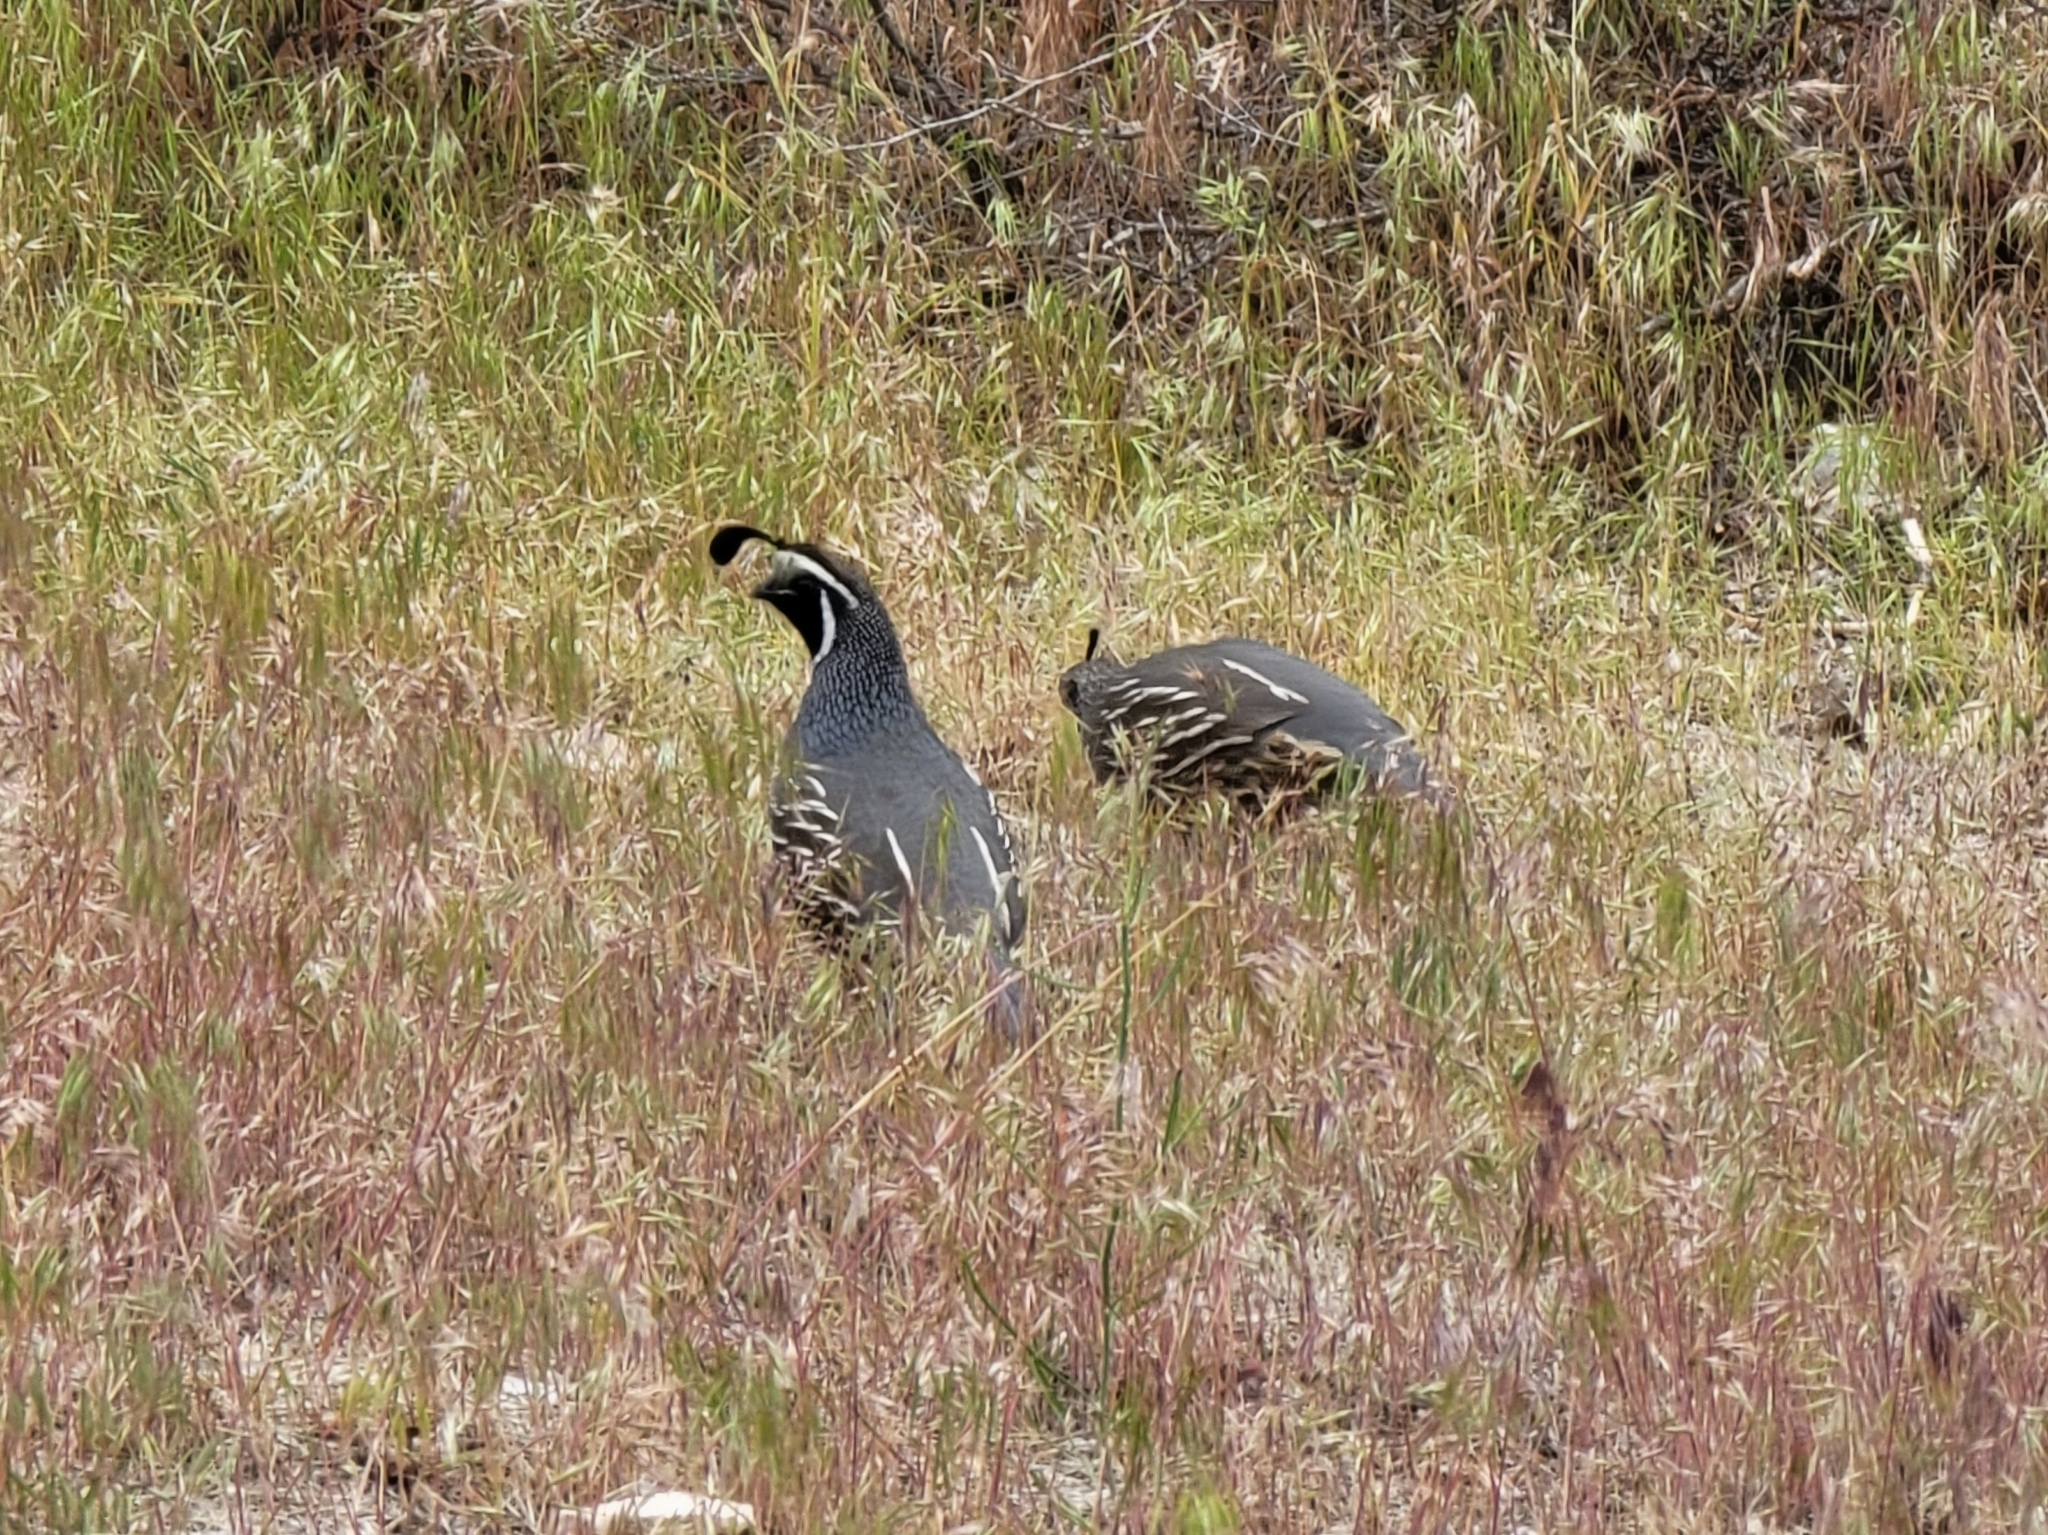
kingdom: Animalia
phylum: Chordata
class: Aves
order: Galliformes
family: Odontophoridae
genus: Callipepla
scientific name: Callipepla californica
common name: California quail
